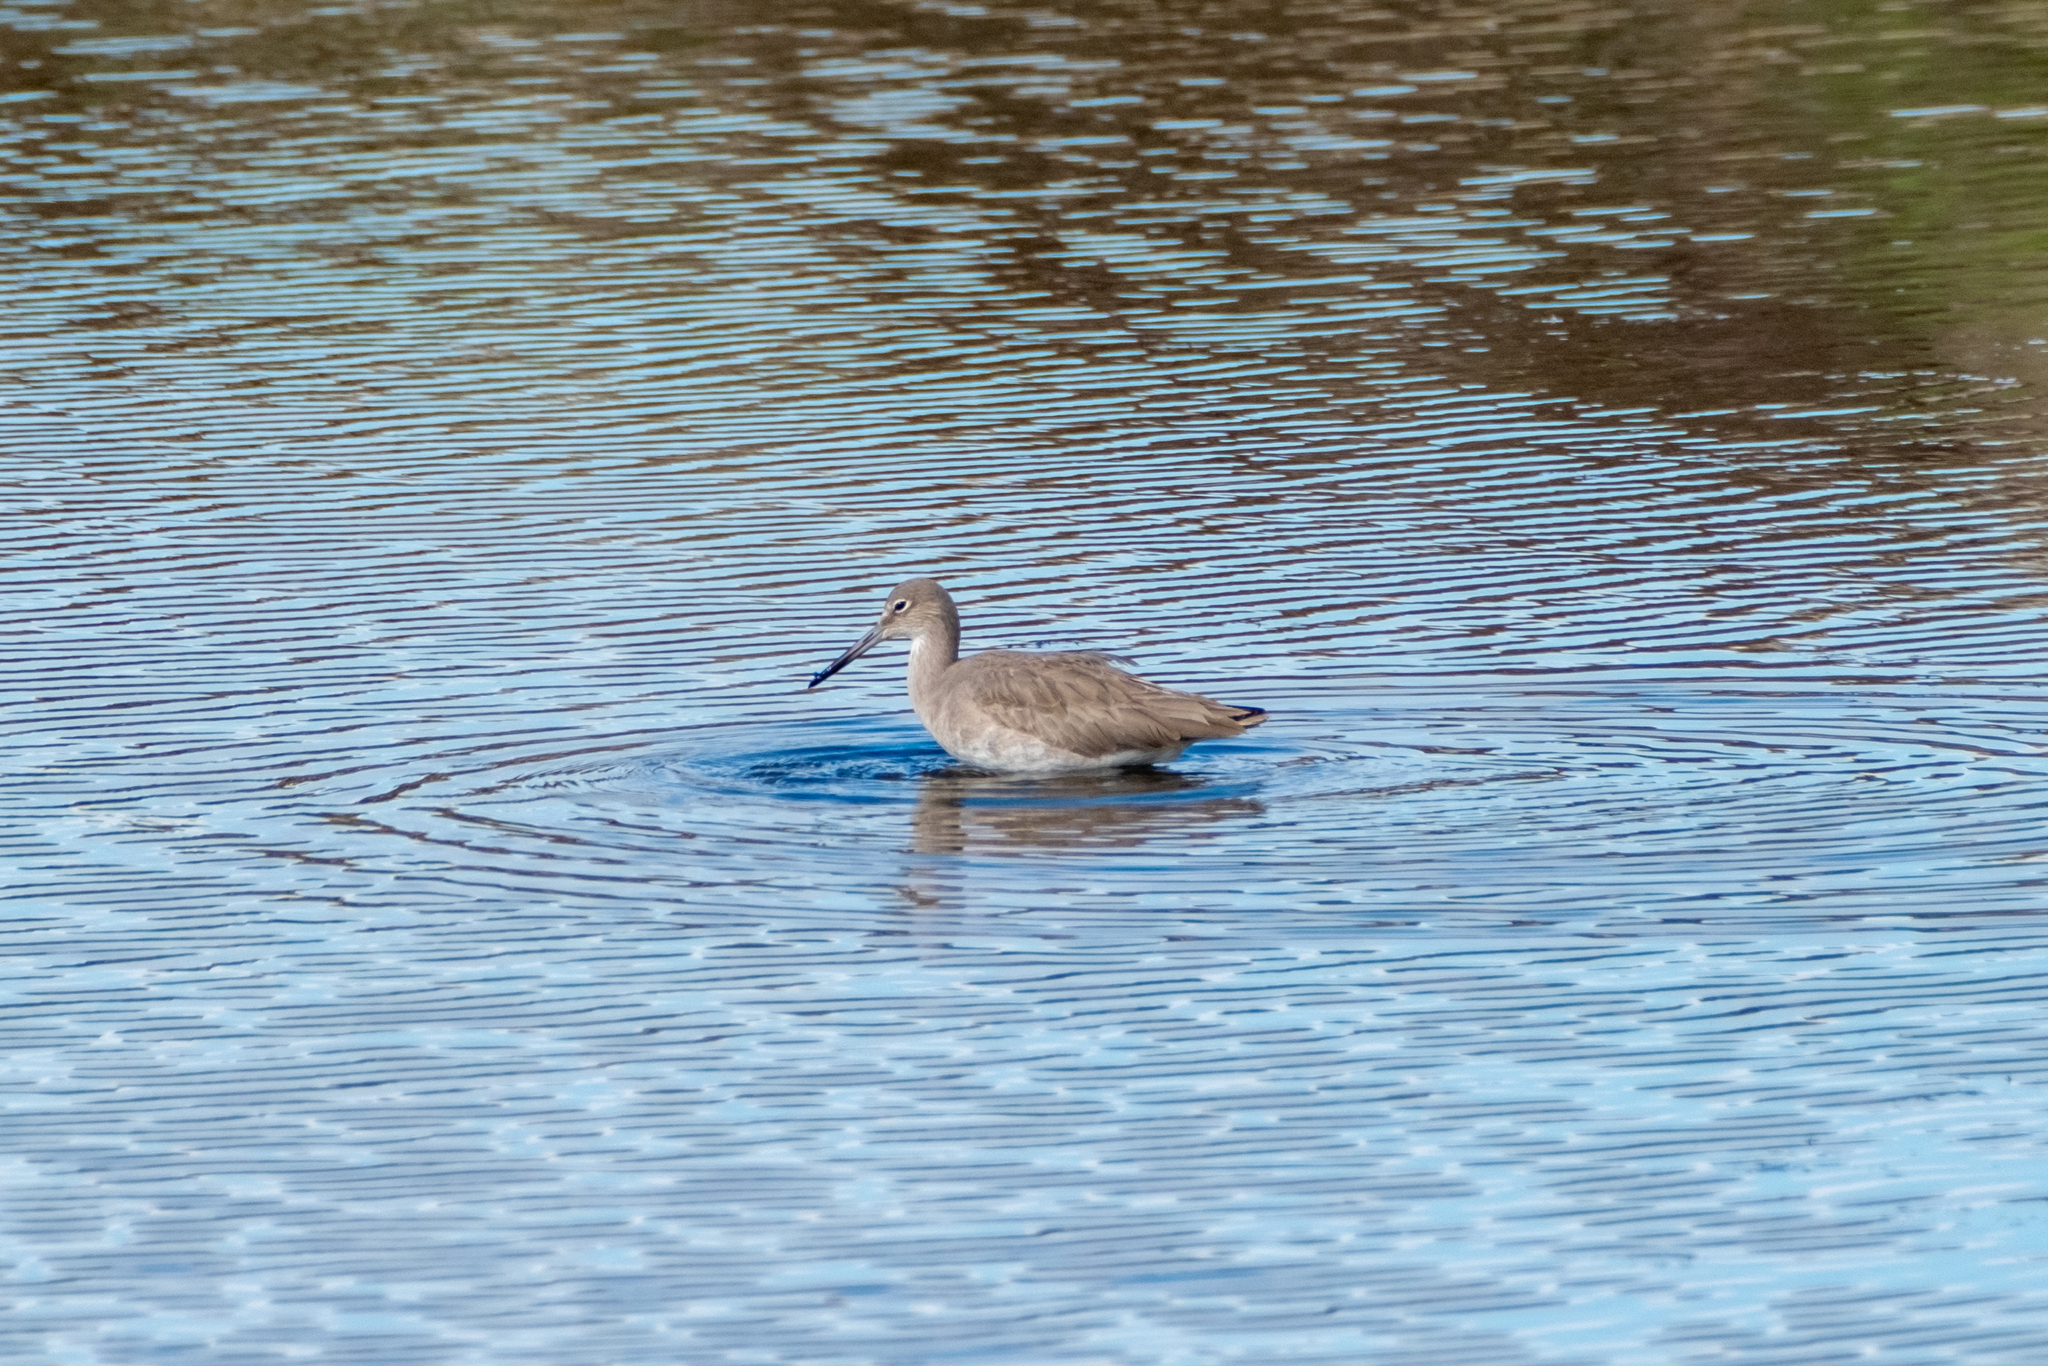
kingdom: Animalia
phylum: Chordata
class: Aves
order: Charadriiformes
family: Scolopacidae
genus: Tringa
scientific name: Tringa semipalmata
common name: Willet
